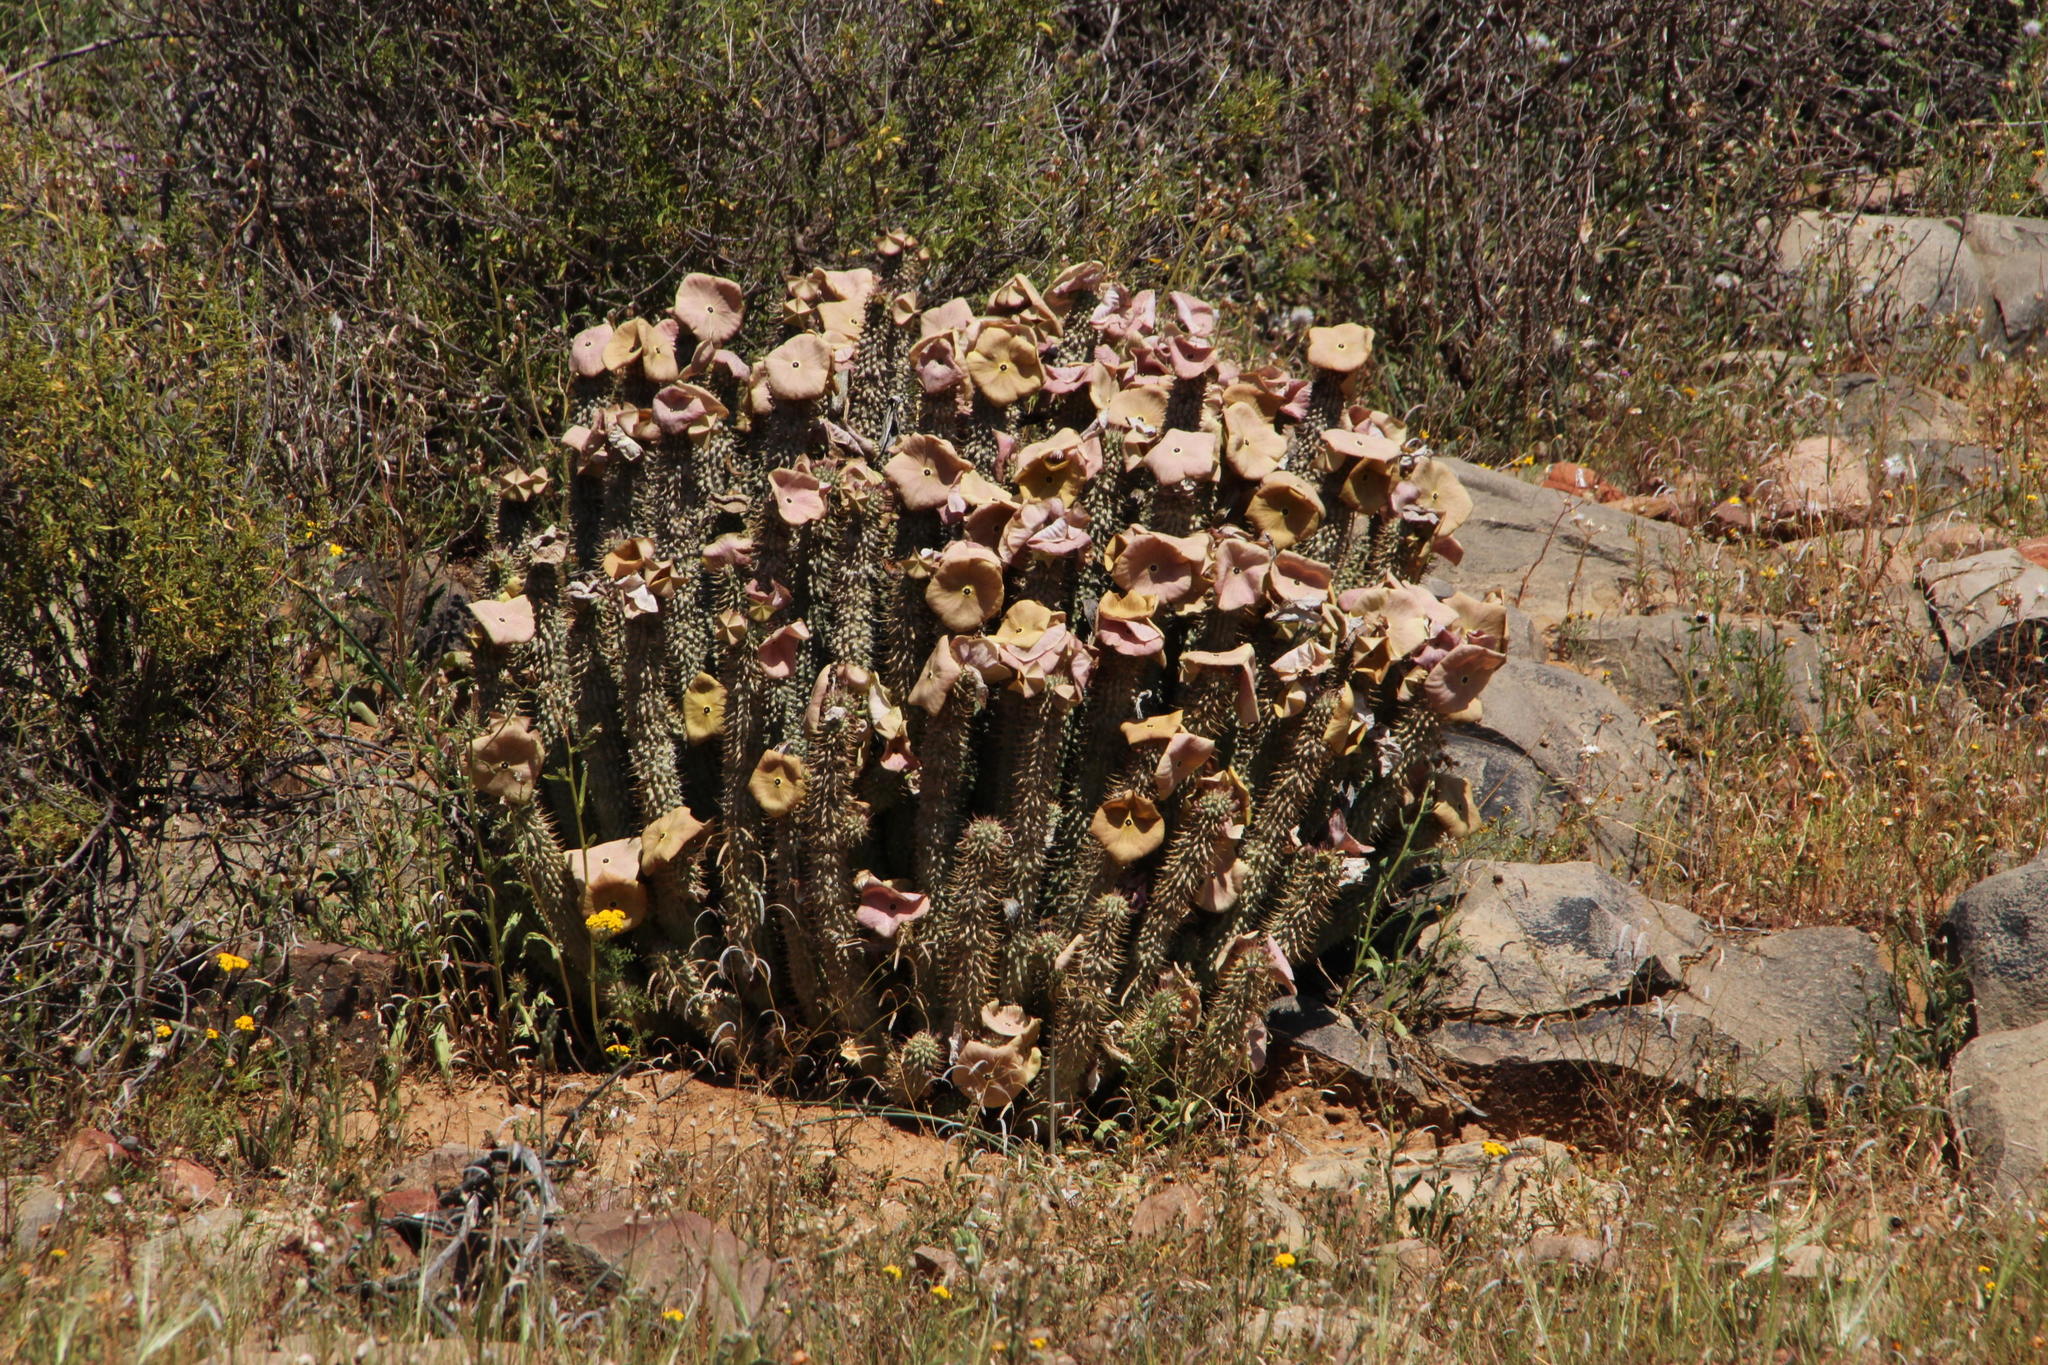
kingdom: Plantae
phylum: Tracheophyta
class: Magnoliopsida
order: Gentianales
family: Apocynaceae
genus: Hoodia
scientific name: Hoodia gordonii
